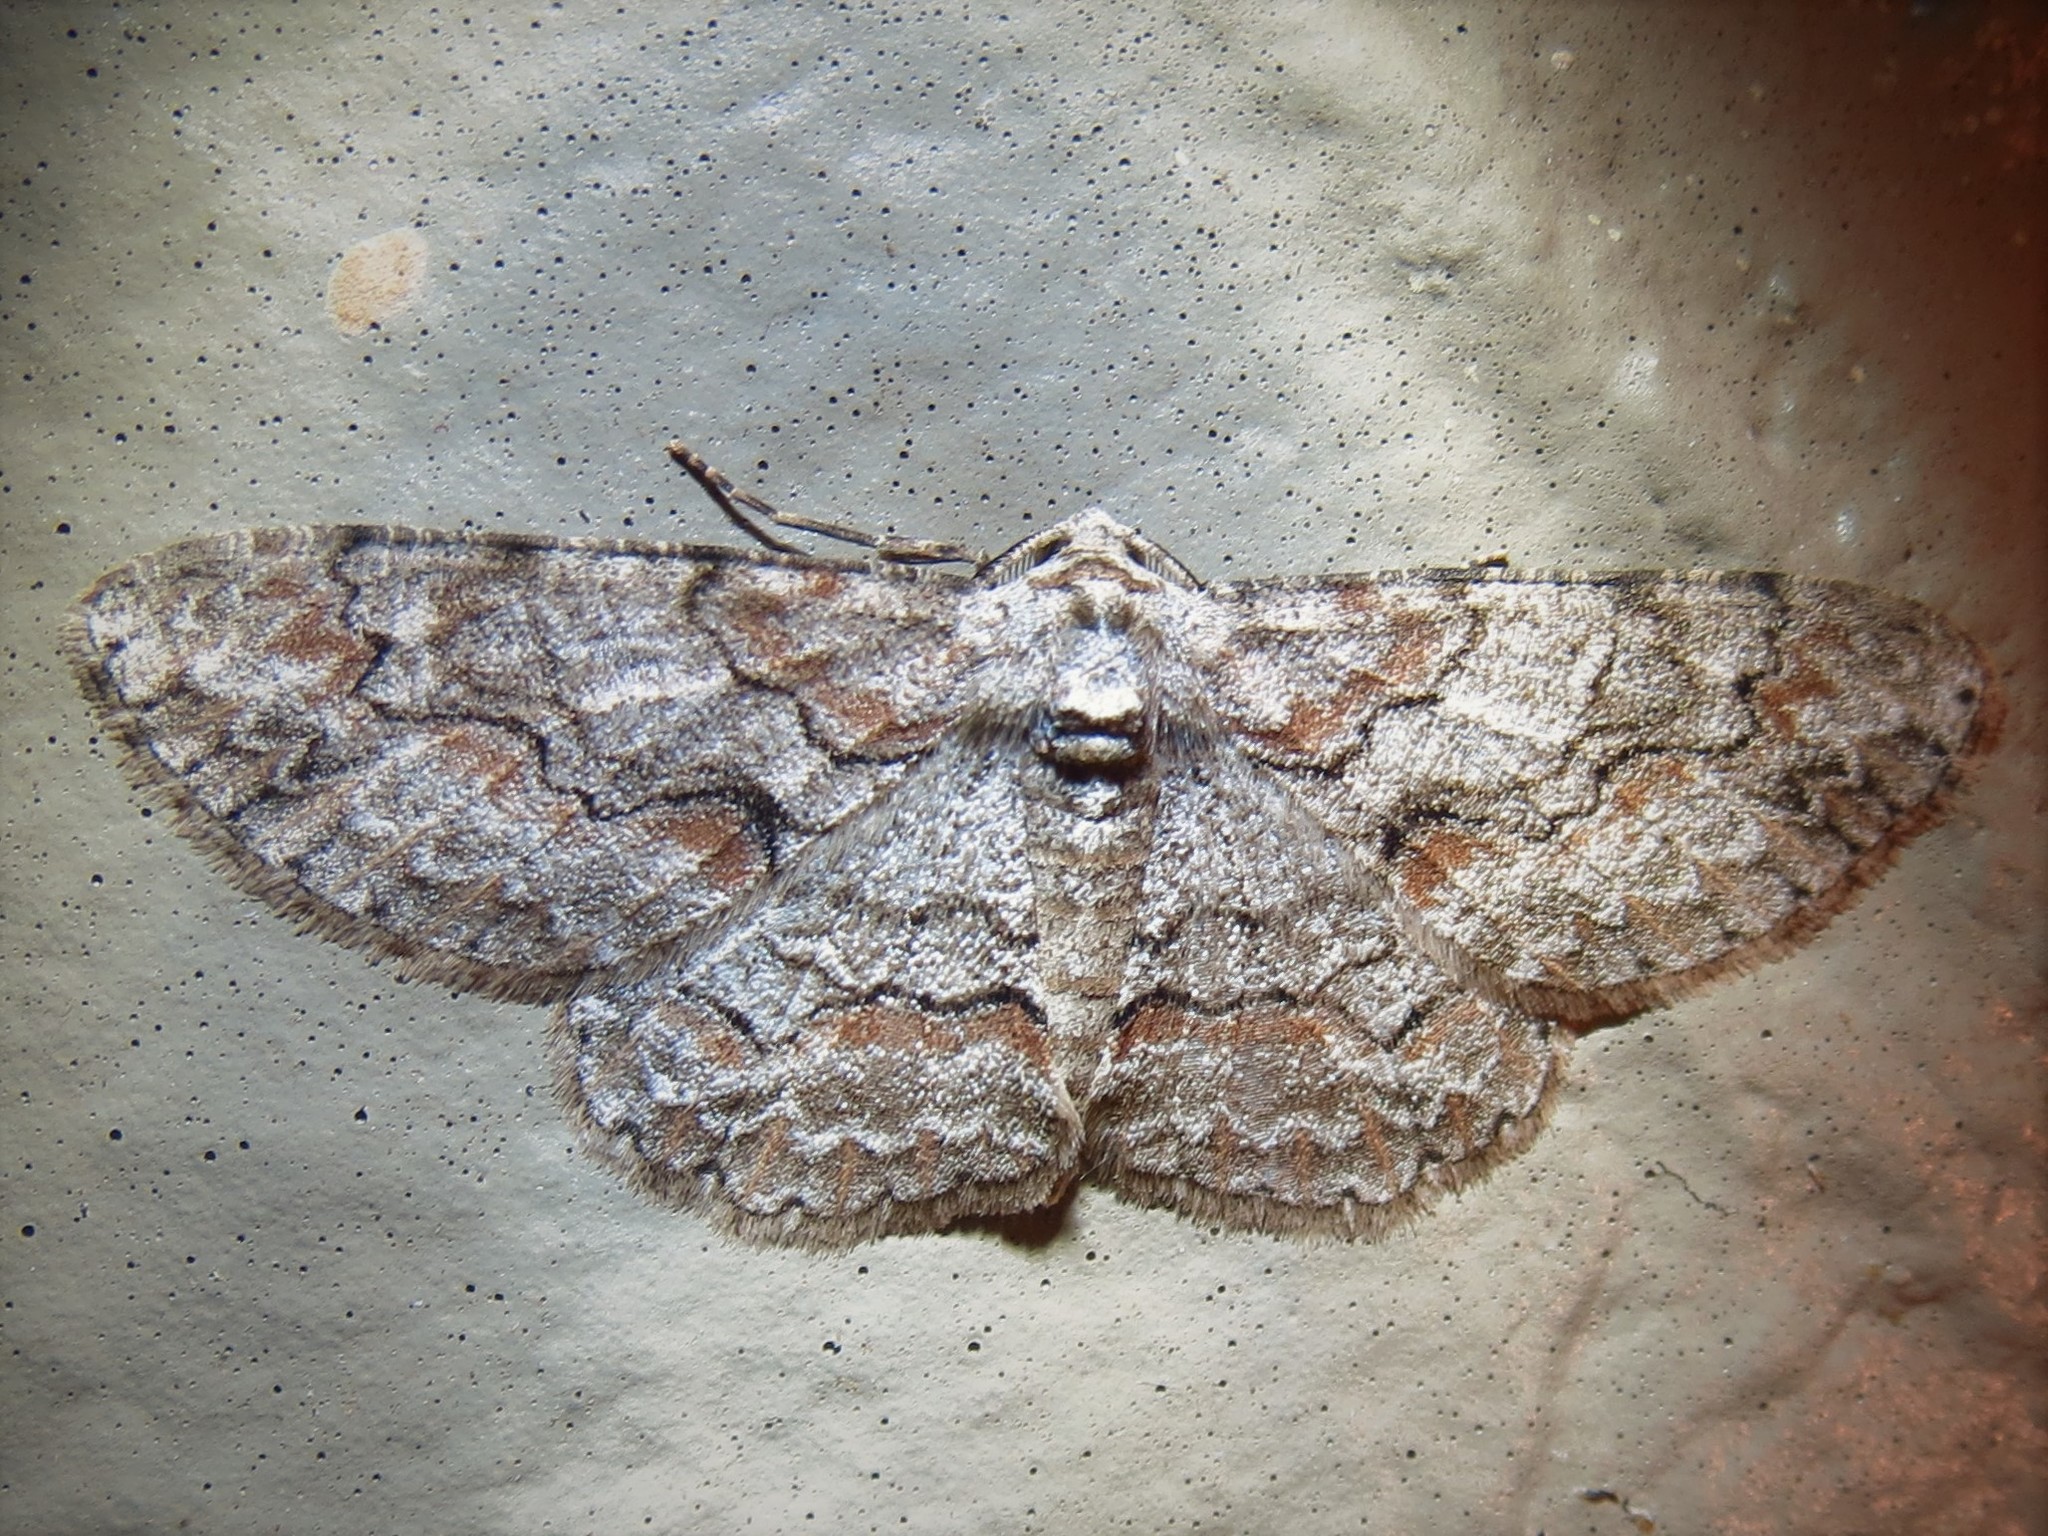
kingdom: Animalia
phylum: Arthropoda
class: Insecta
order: Lepidoptera
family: Geometridae
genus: Iridopsis
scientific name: Iridopsis defectaria
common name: Brown-shaded gray
